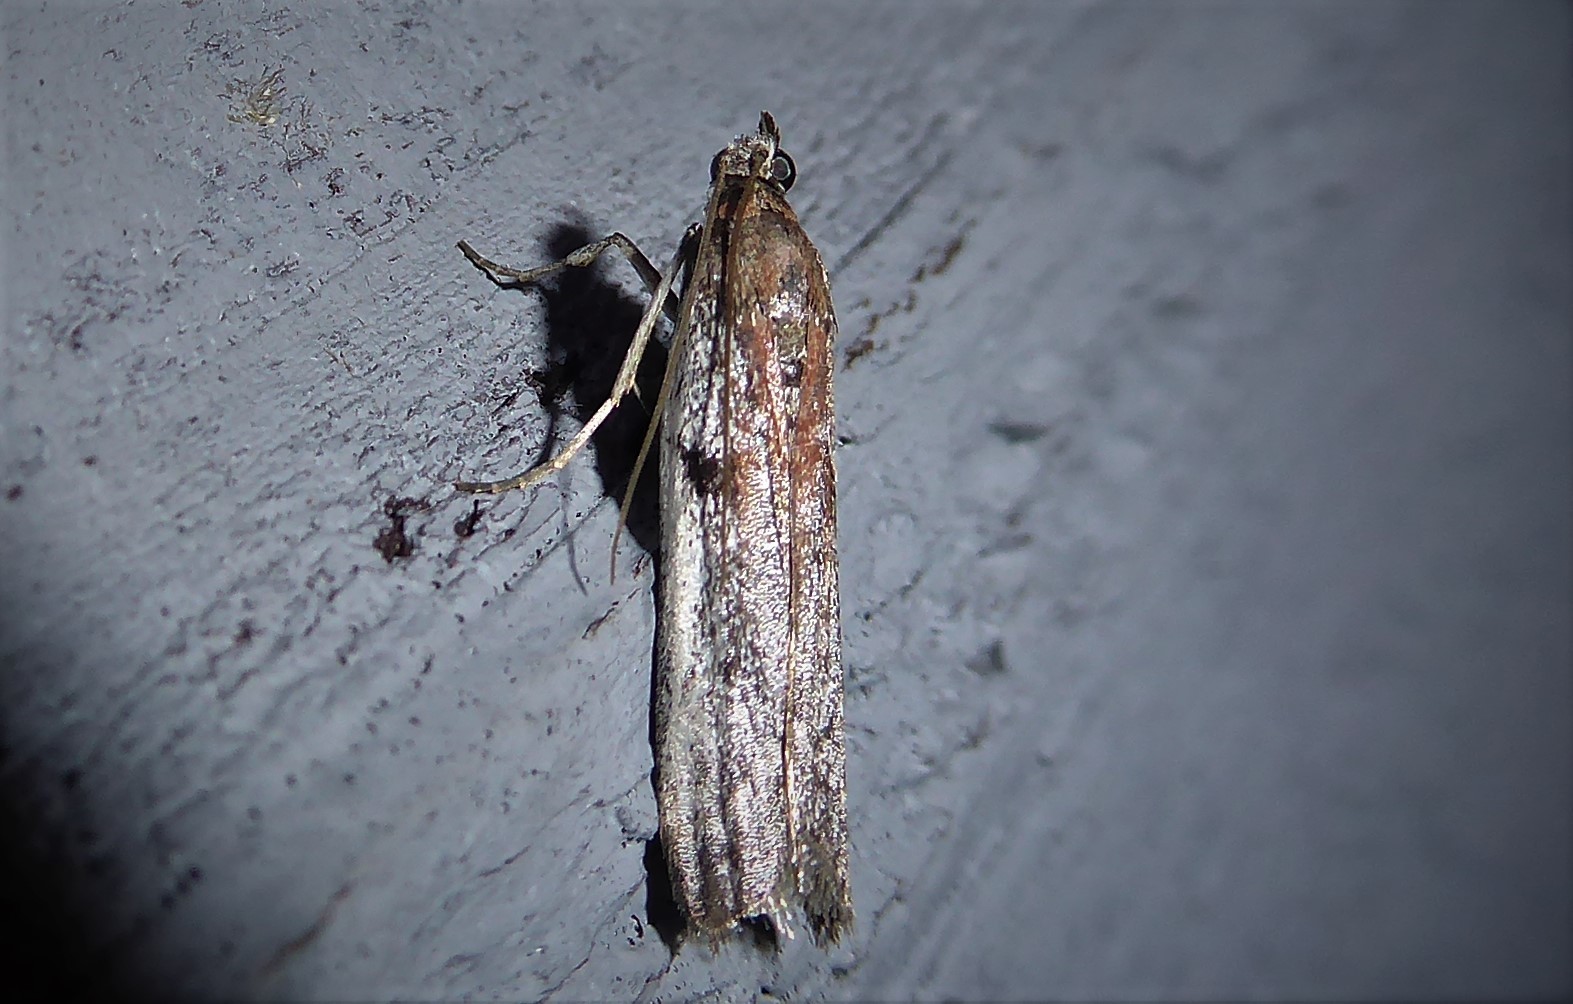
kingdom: Animalia
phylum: Arthropoda
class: Insecta
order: Lepidoptera
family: Pyralidae
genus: Patagoniodes
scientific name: Patagoniodes farinaria
